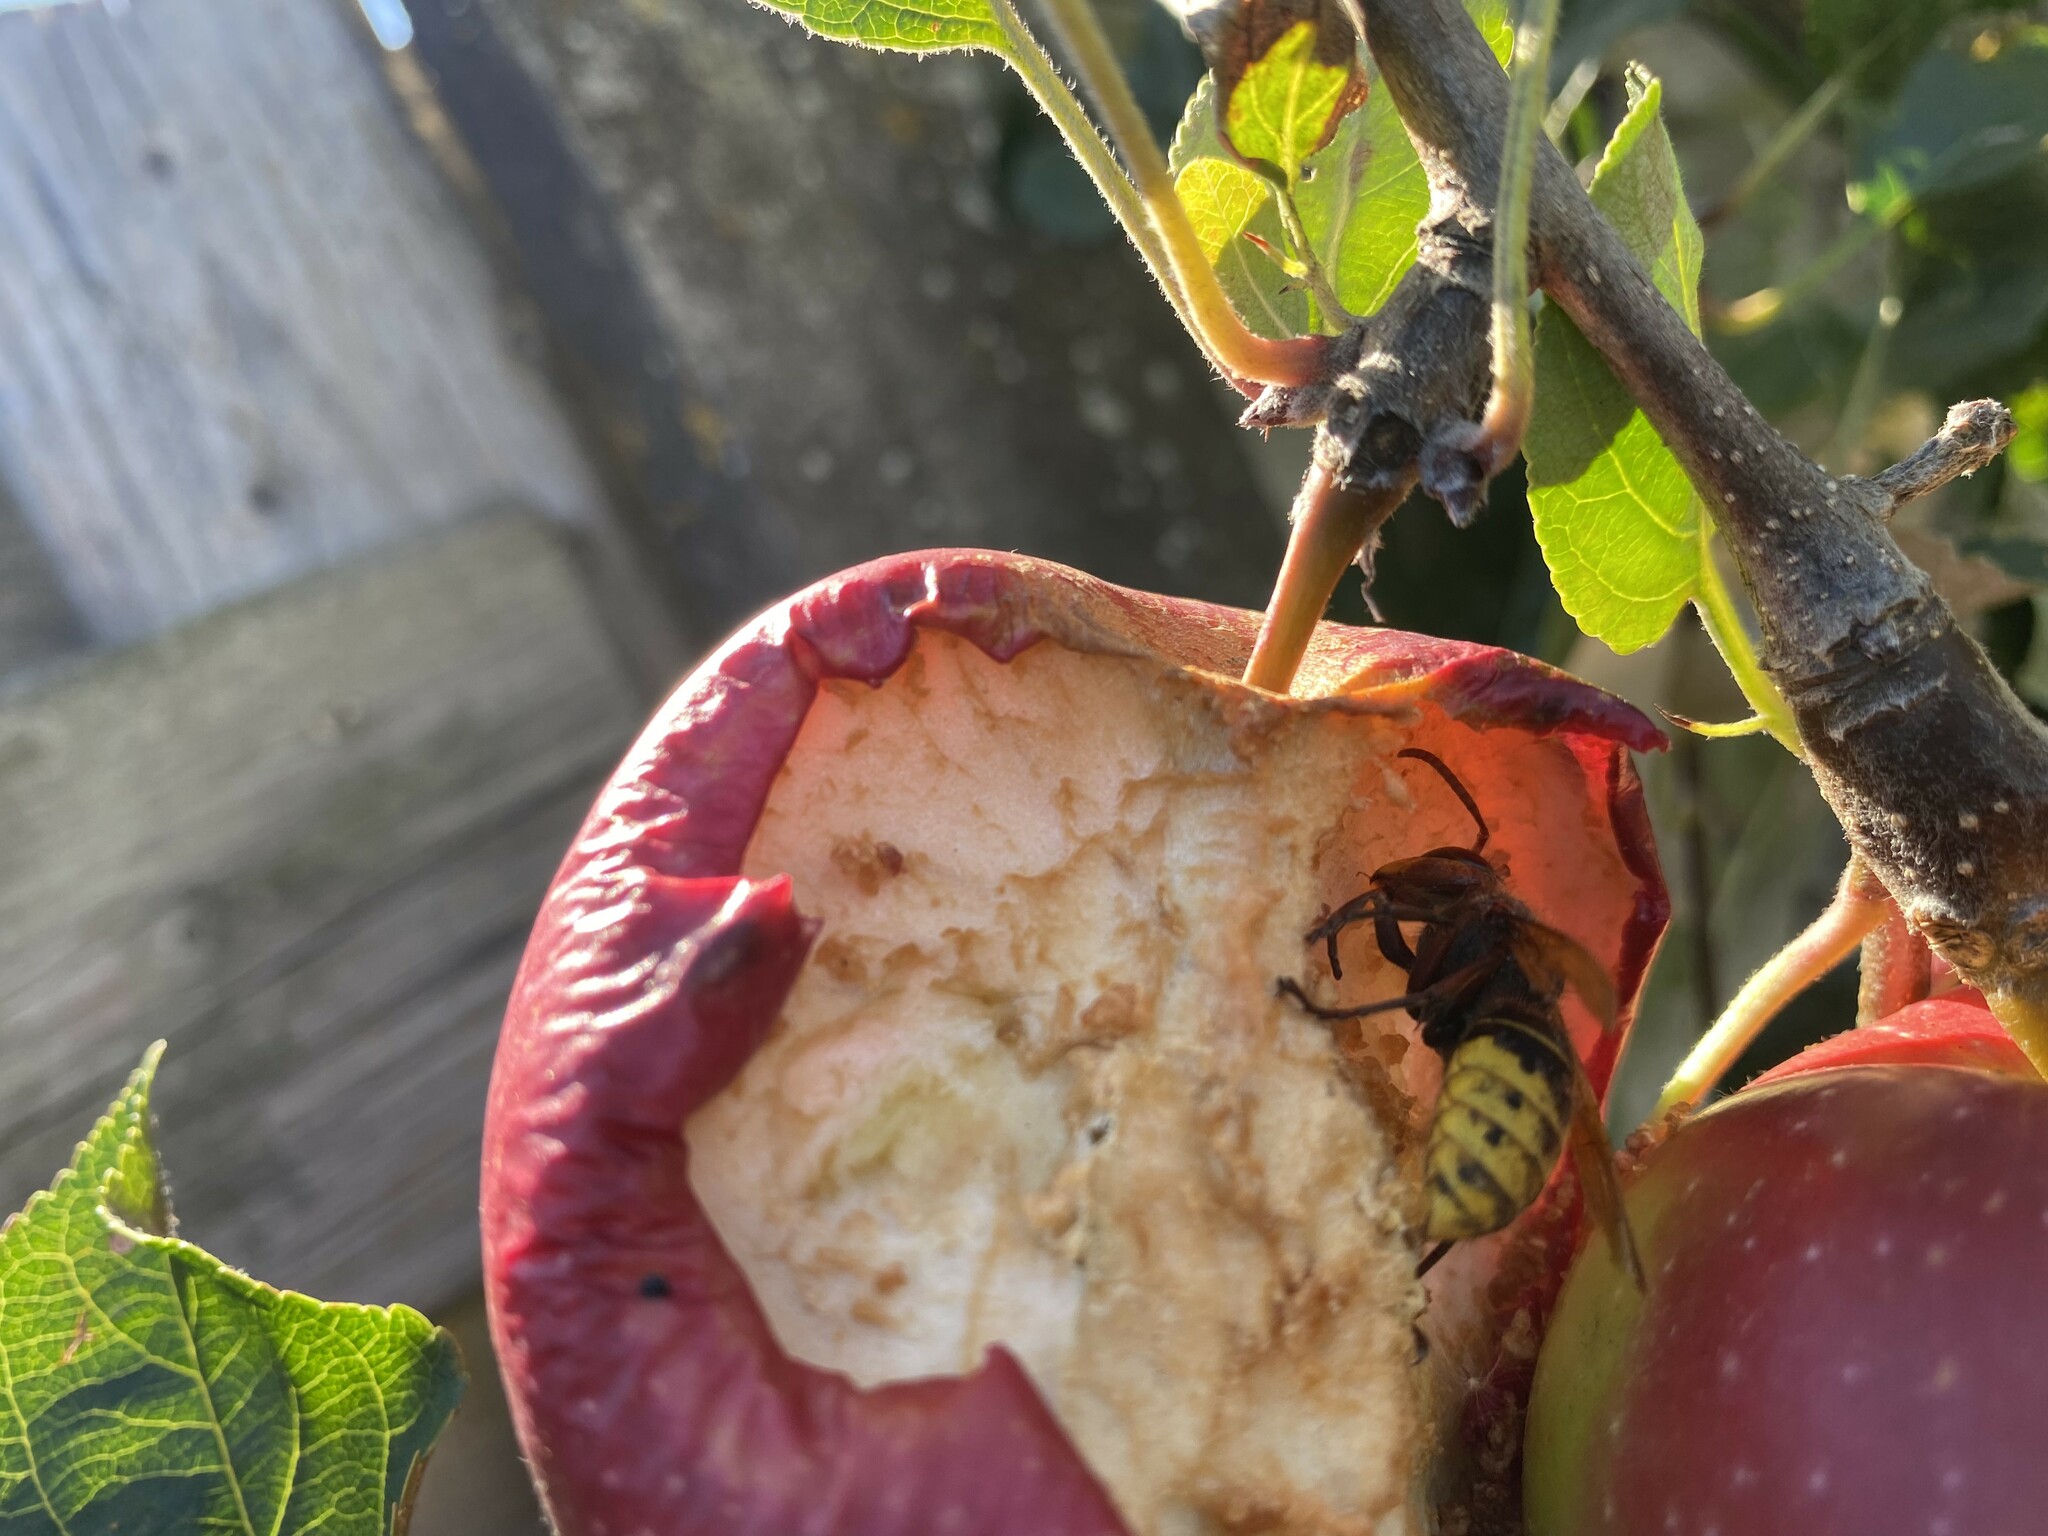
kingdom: Animalia
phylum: Arthropoda
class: Insecta
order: Hymenoptera
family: Vespidae
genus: Vespa
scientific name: Vespa crabro
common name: Hornet
